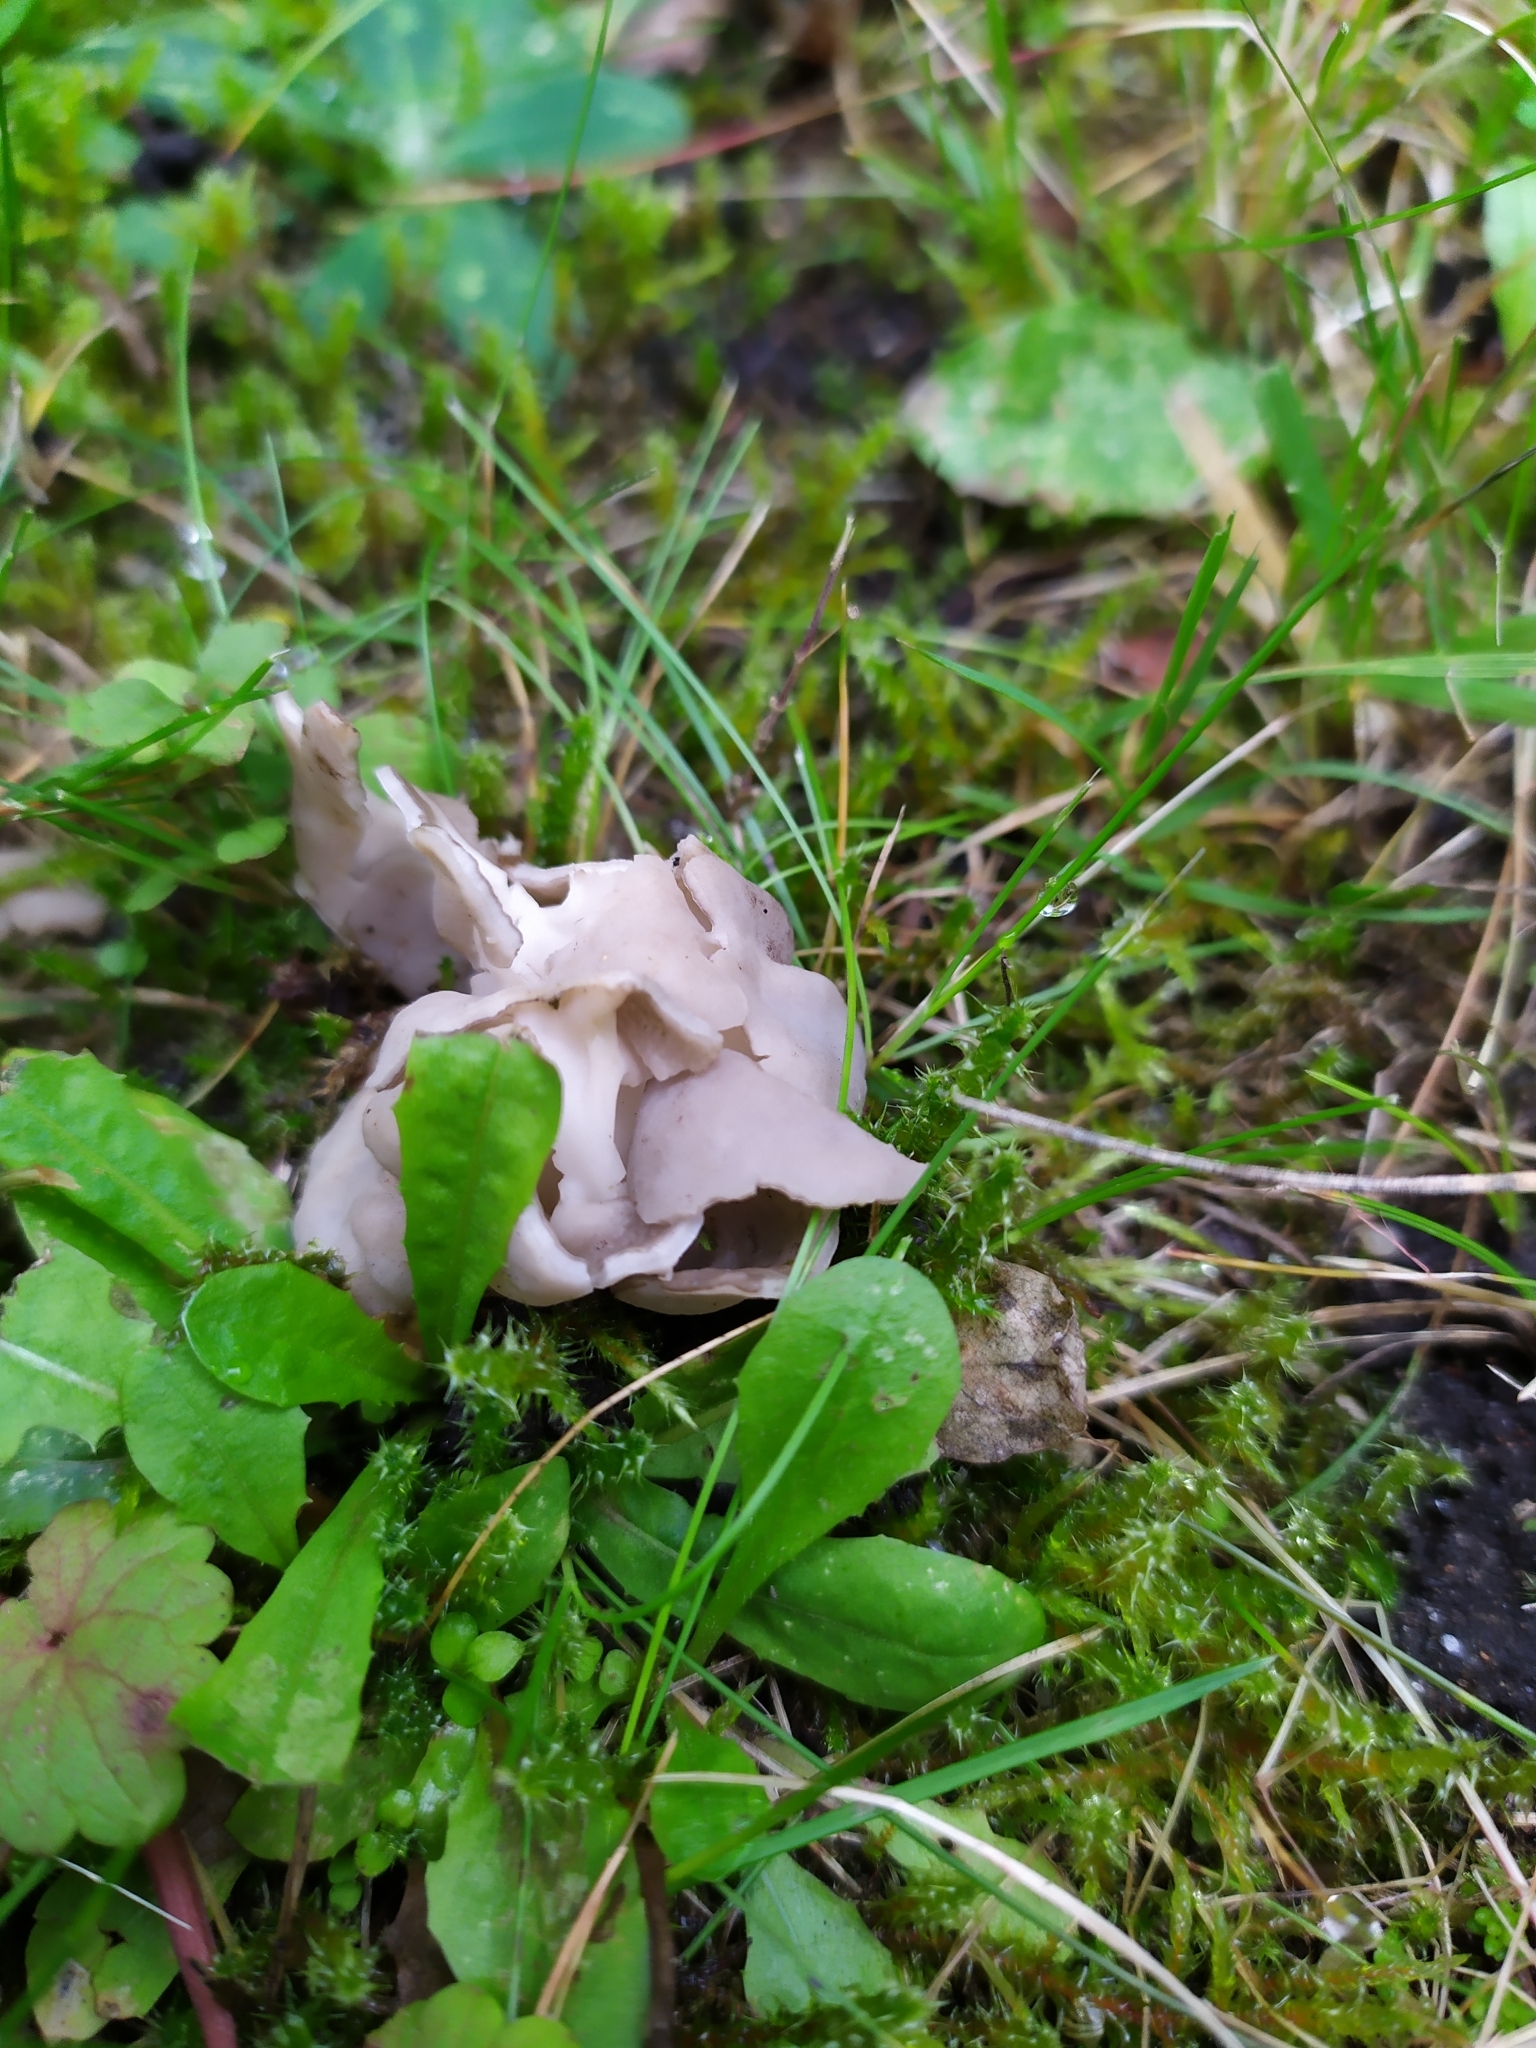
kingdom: Fungi
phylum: Ascomycota
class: Pezizomycetes
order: Pezizales
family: Helvellaceae
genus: Helvella
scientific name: Helvella lacunosa
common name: Elfin saddle
